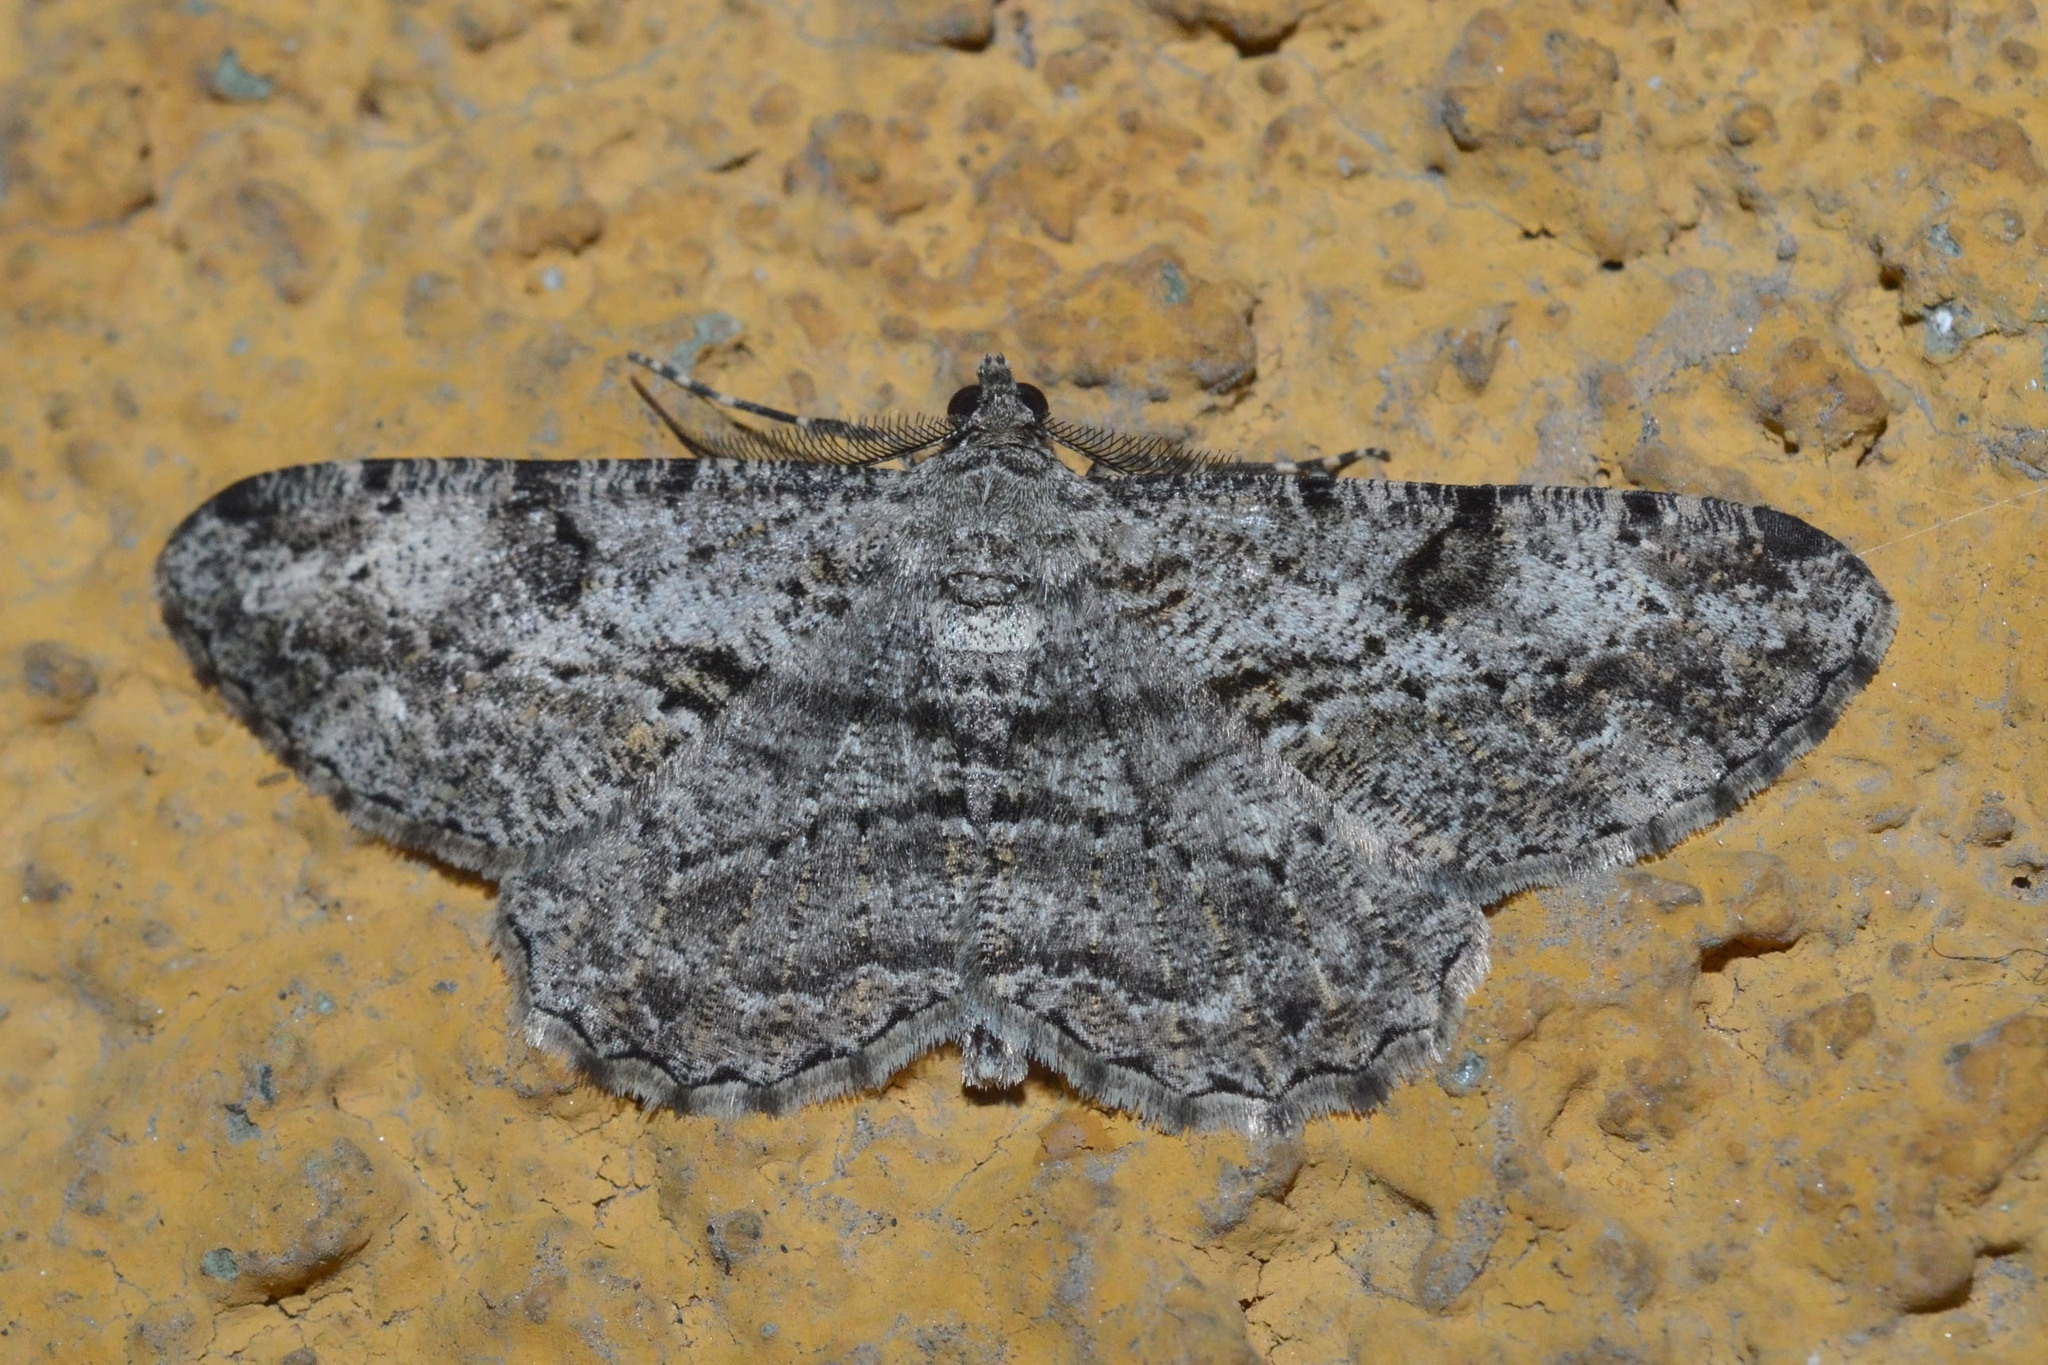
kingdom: Animalia
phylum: Arthropoda
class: Insecta
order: Lepidoptera
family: Geometridae
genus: Peribatodes
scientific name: Peribatodes rhomboidaria
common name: Willow beauty
